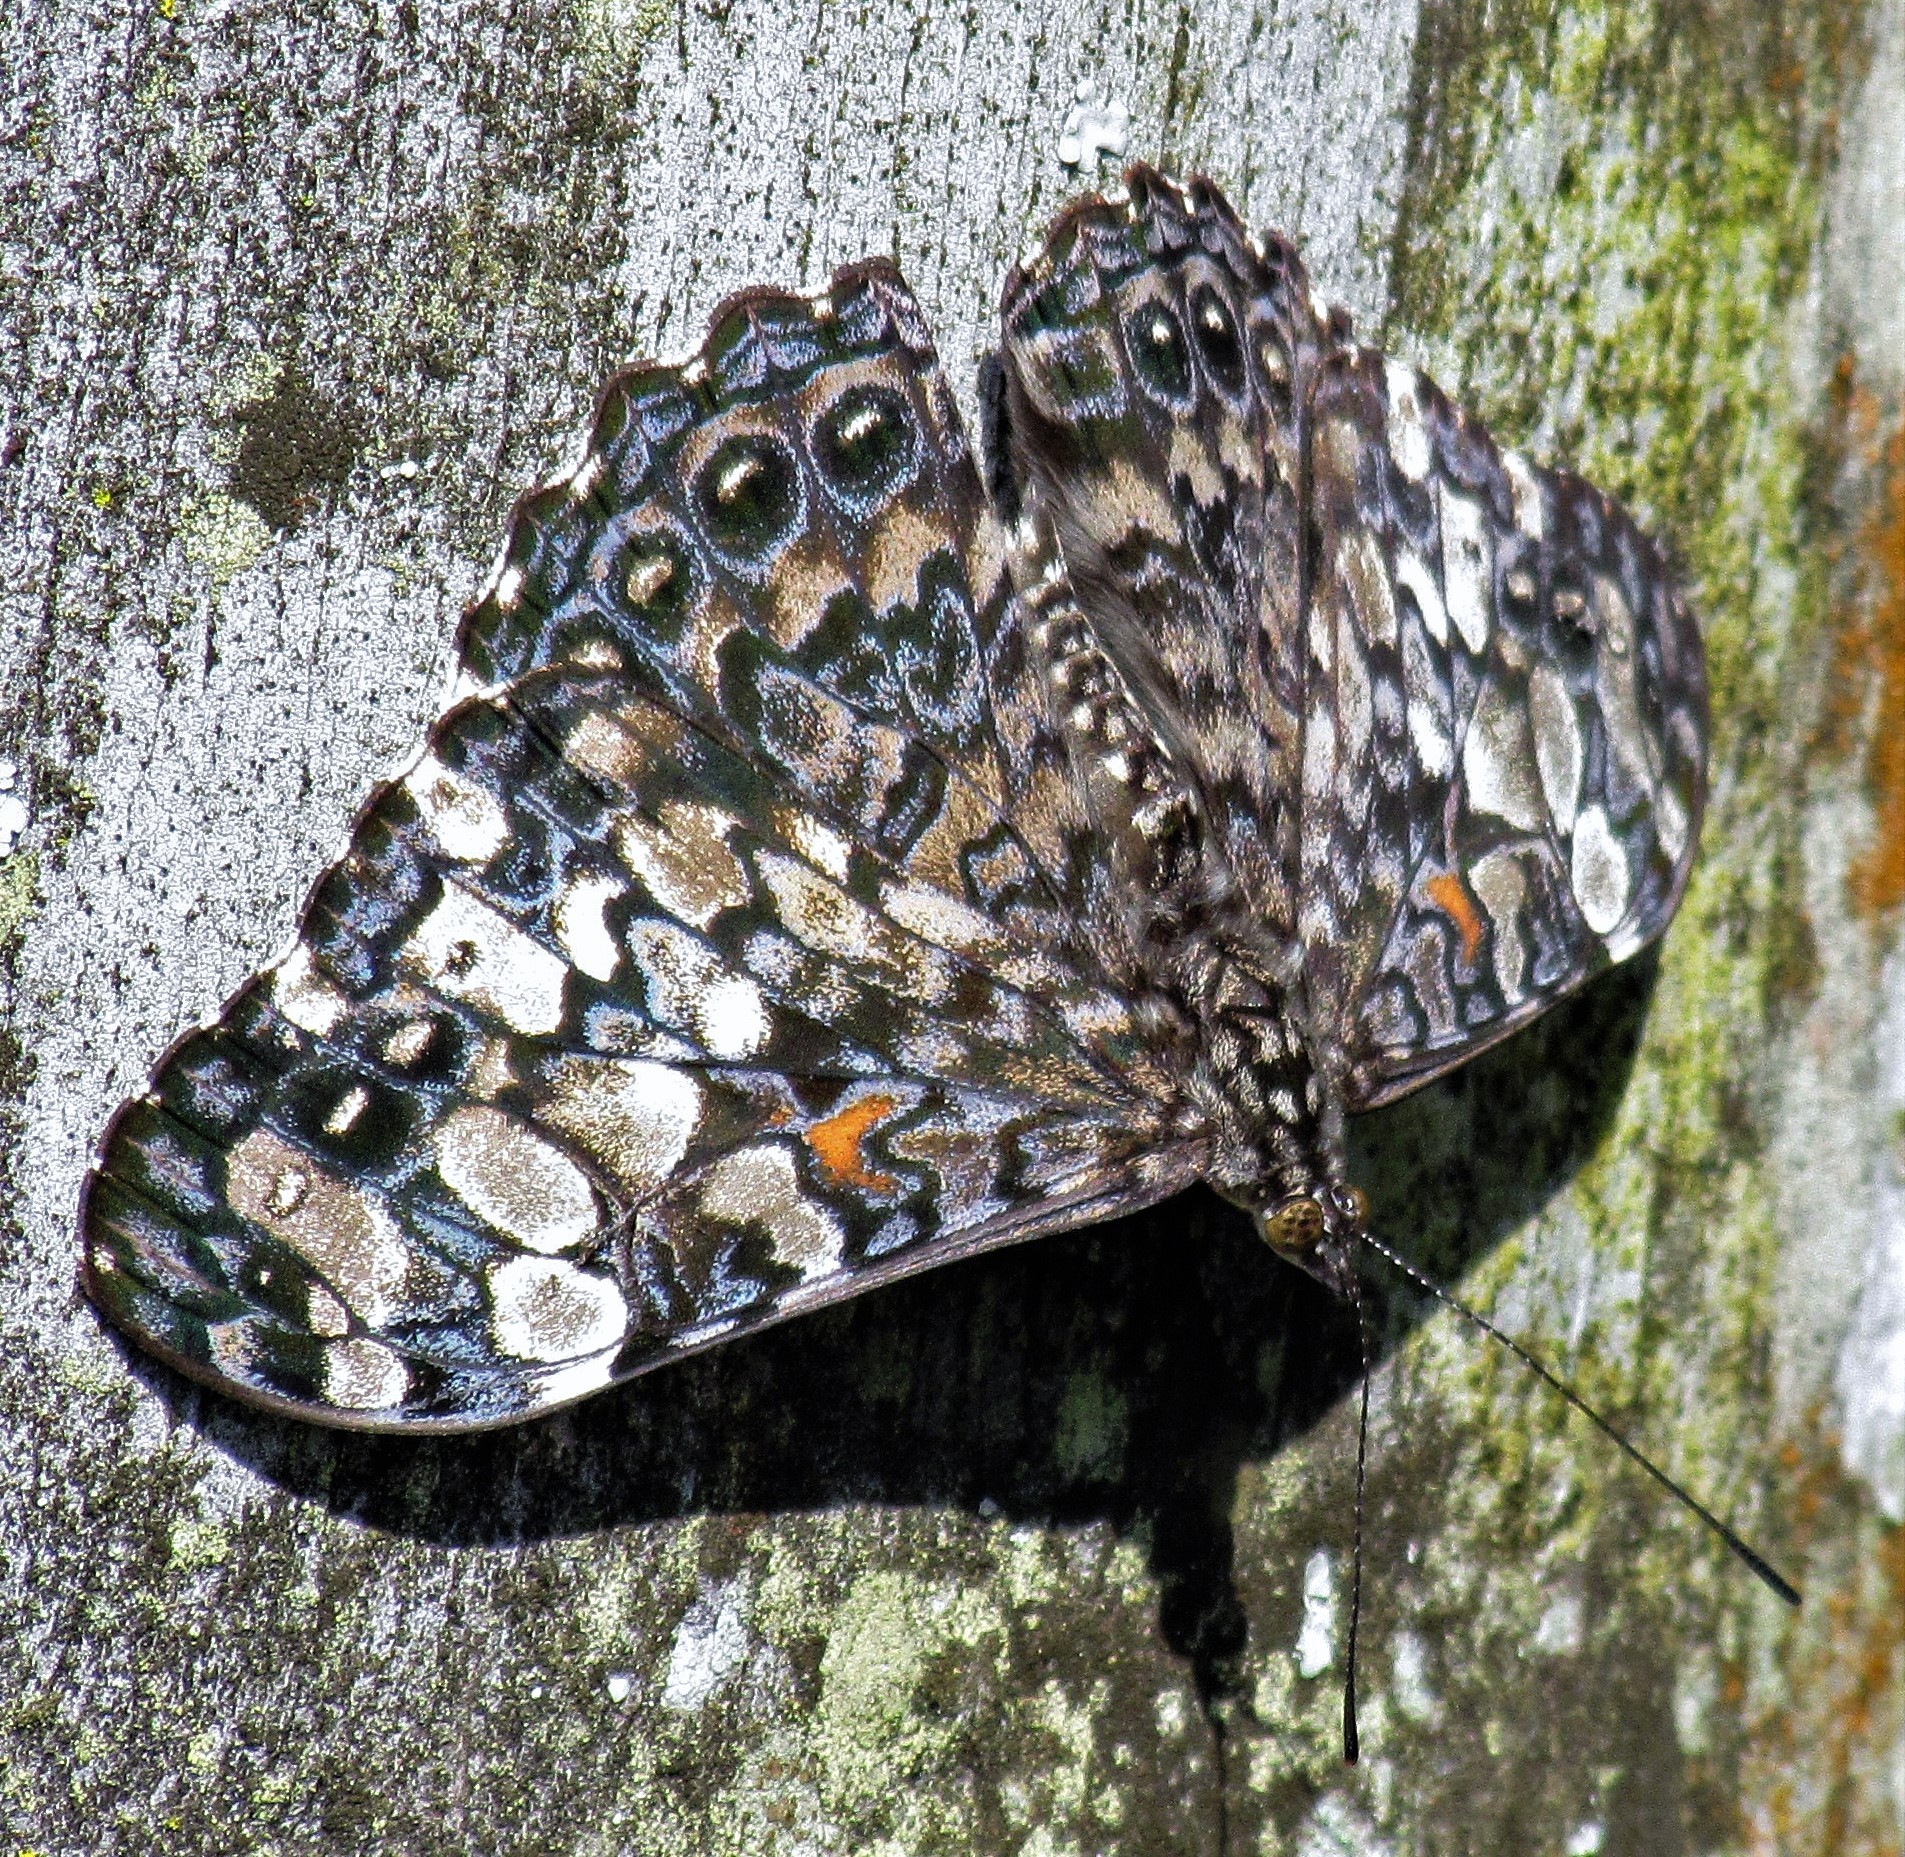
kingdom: Animalia
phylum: Arthropoda
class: Insecta
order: Lepidoptera
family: Nymphalidae
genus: Hamadryas
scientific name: Hamadryas epinome
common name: Epinome cracker
